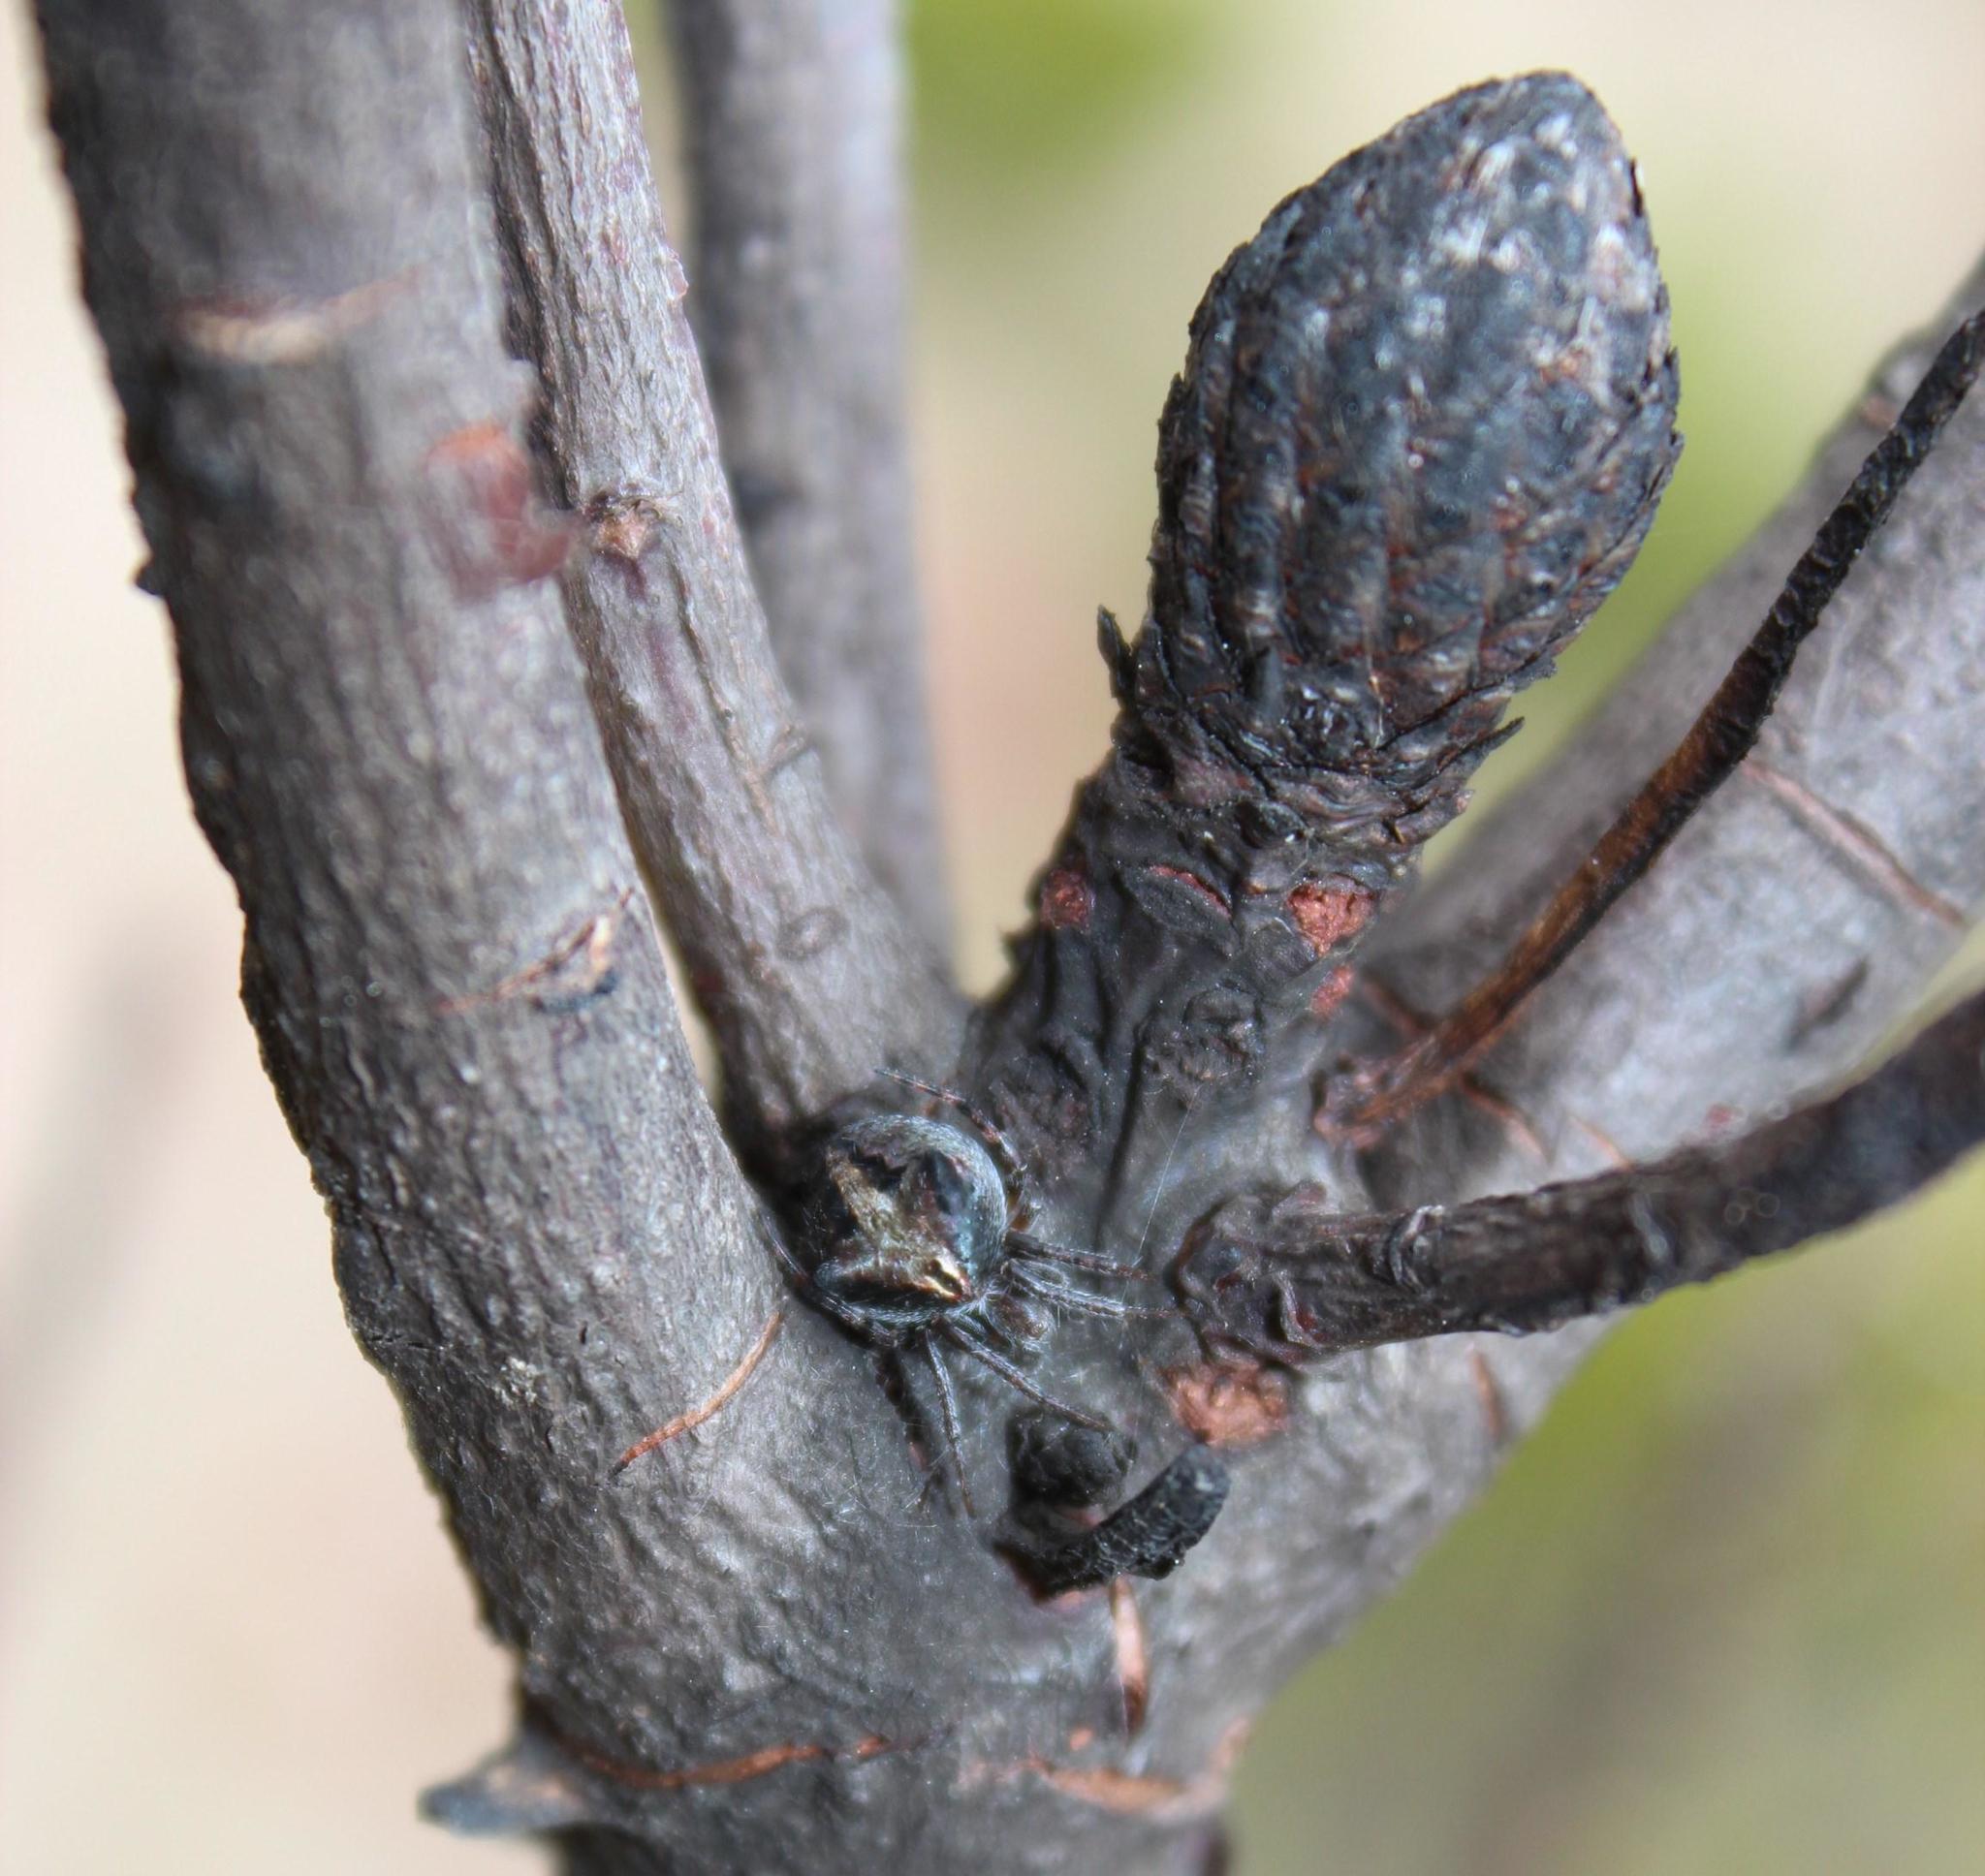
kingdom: Plantae
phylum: Tracheophyta
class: Magnoliopsida
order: Proteales
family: Proteaceae
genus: Protea
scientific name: Protea repens
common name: Sugarbush
